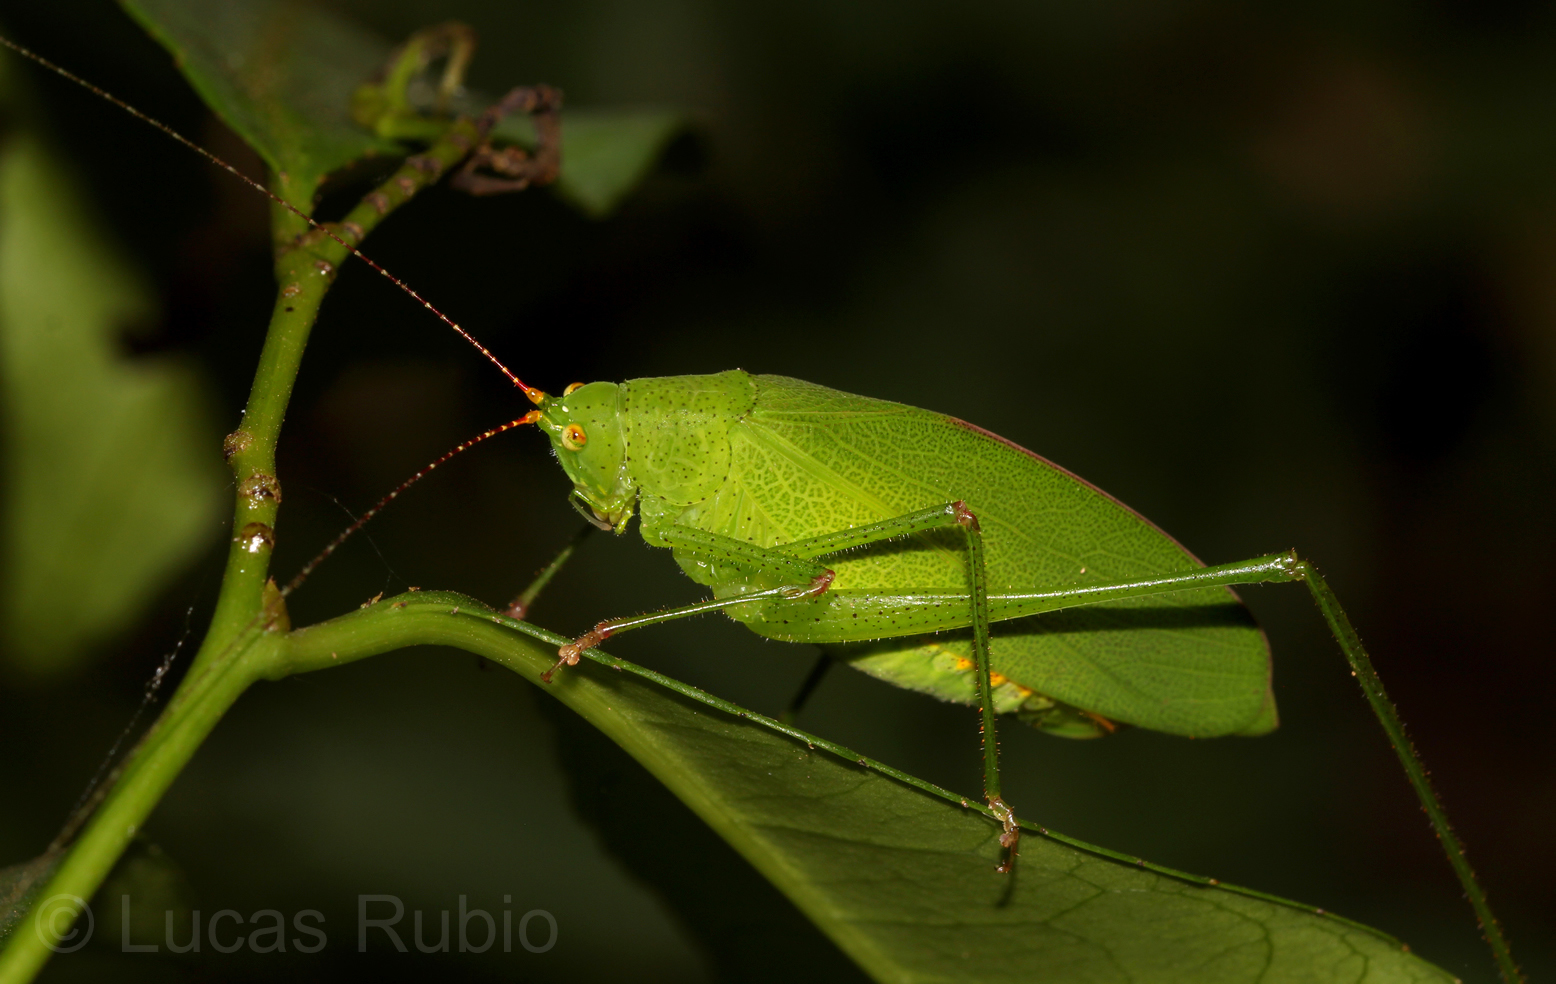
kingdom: Animalia
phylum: Arthropoda
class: Insecta
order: Orthoptera
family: Tettigoniidae
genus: Hyperphrona
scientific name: Hyperphrona signata
